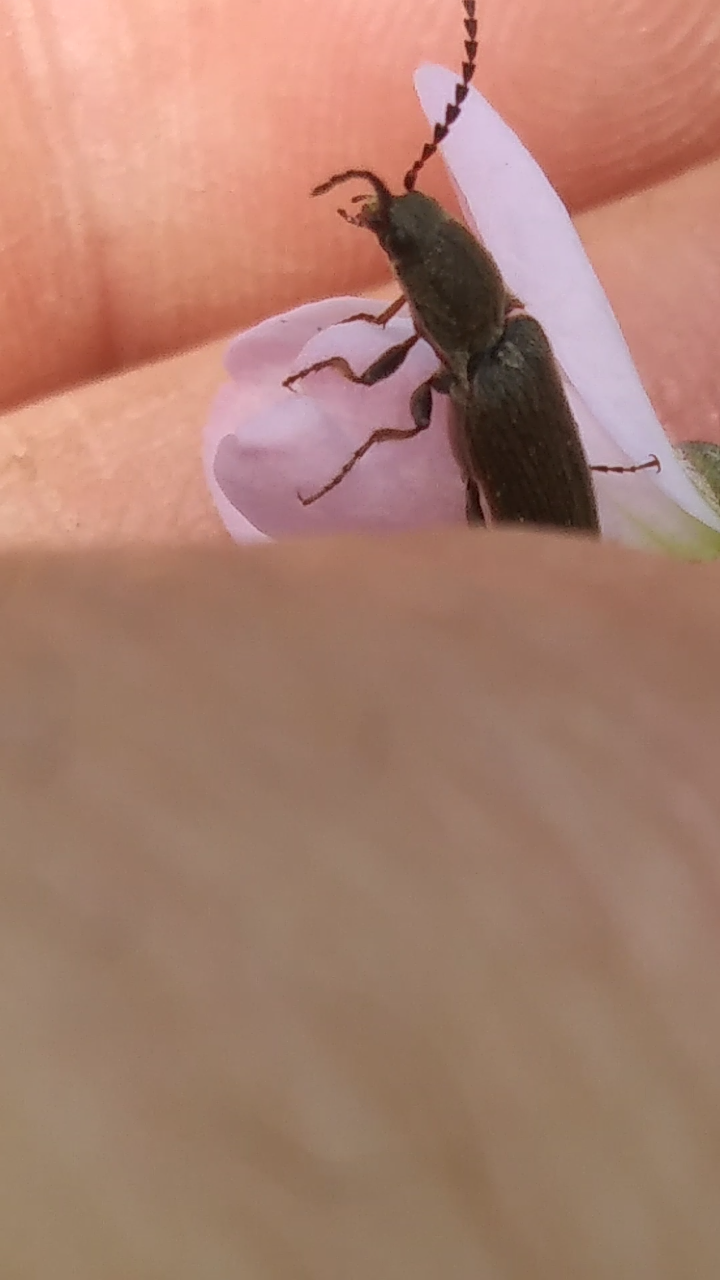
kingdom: Animalia
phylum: Arthropoda
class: Insecta
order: Coleoptera
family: Elateridae
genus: Sylvanelater
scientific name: Sylvanelater cylindriformis
